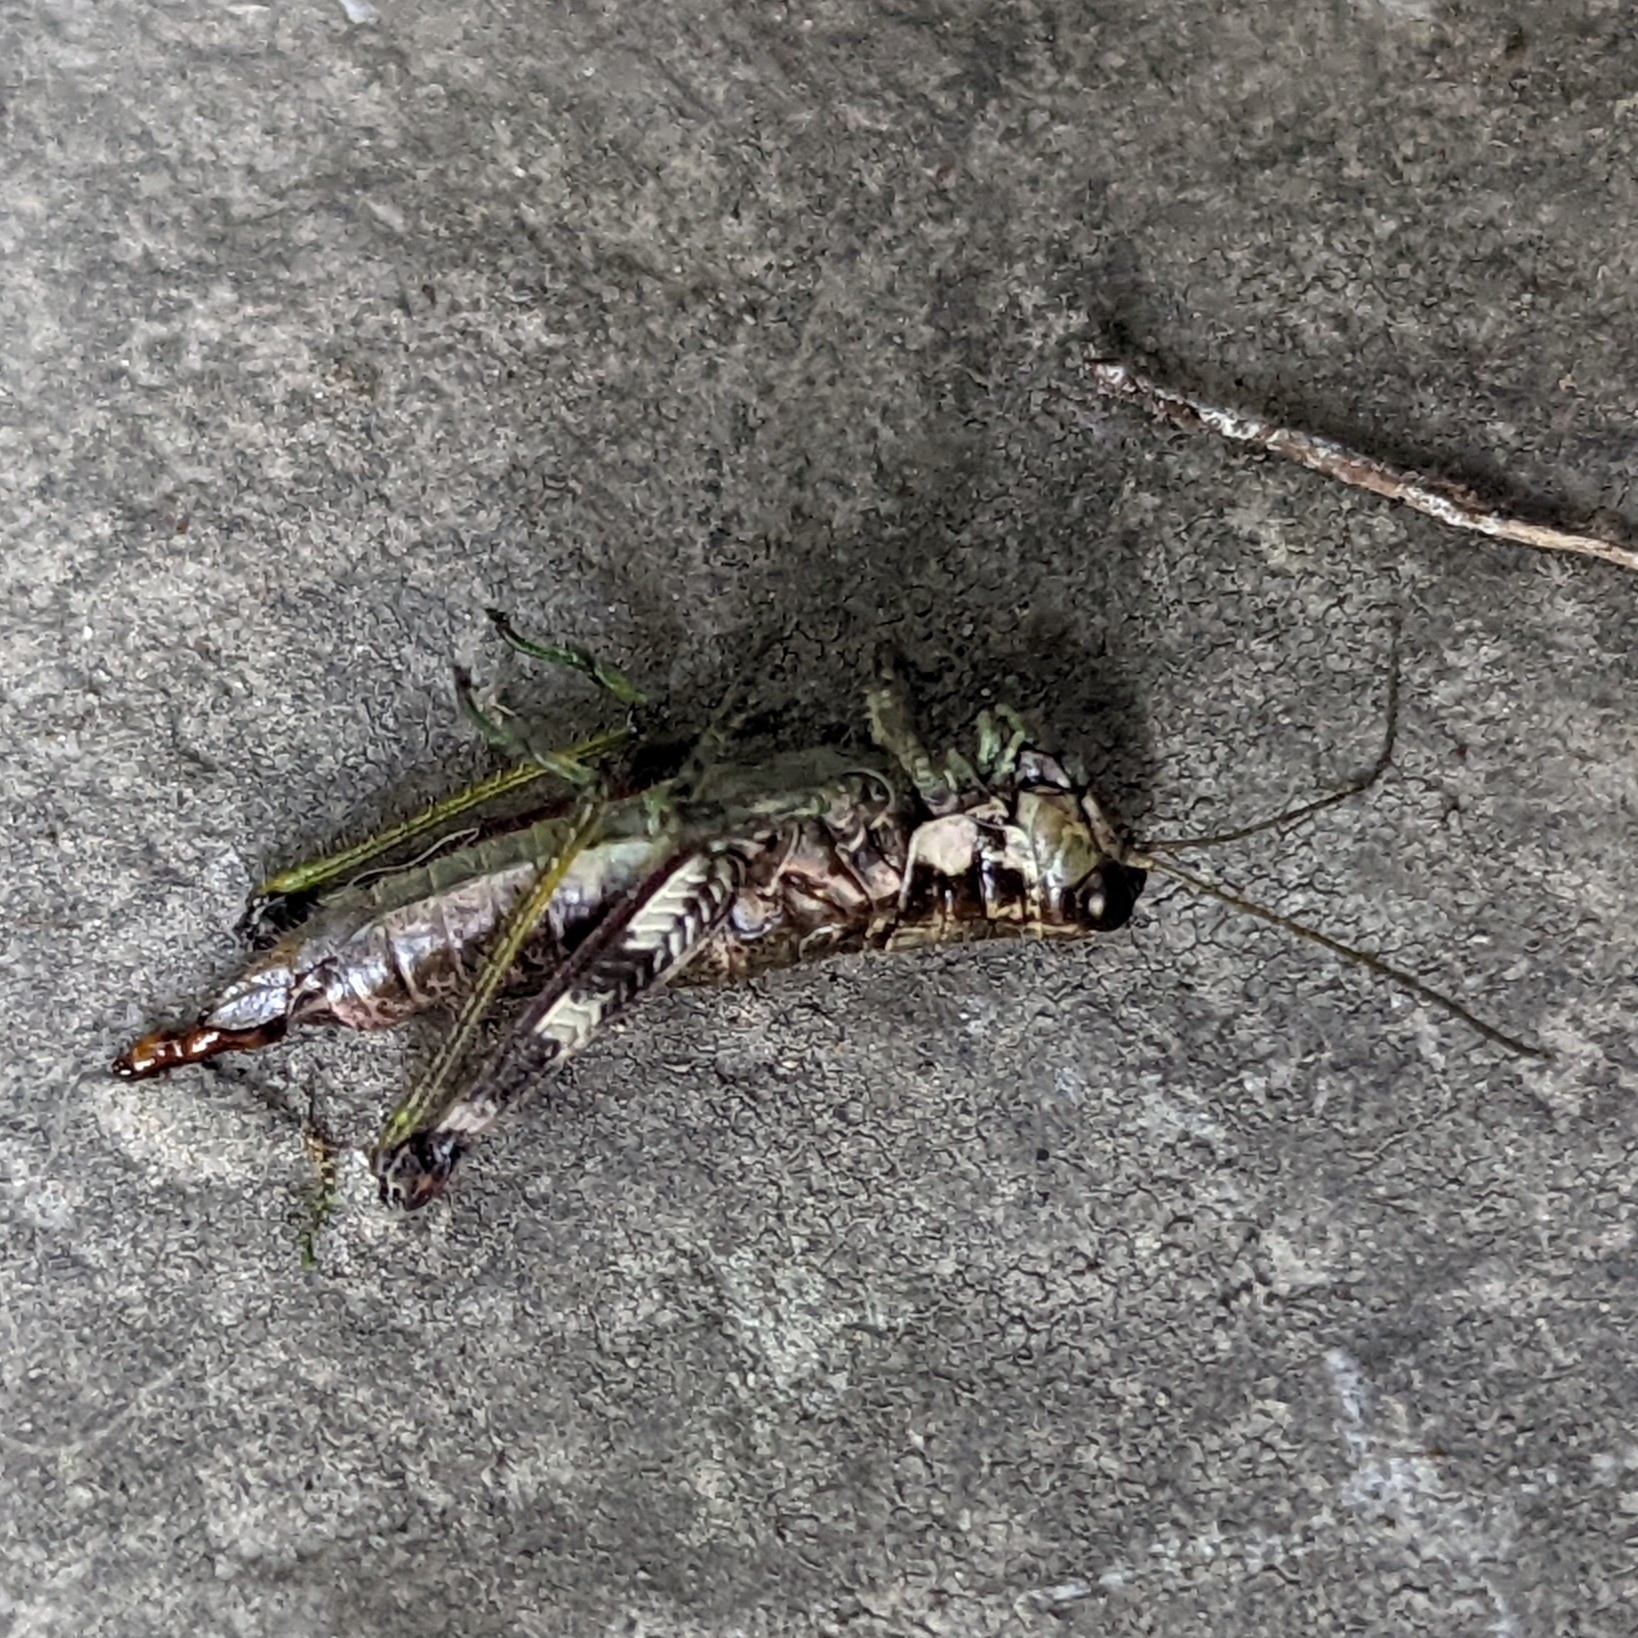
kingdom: Animalia
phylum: Arthropoda
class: Insecta
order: Orthoptera
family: Acrididae
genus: Booneacris
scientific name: Booneacris glacialis
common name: Wingless mountain grasshopper
